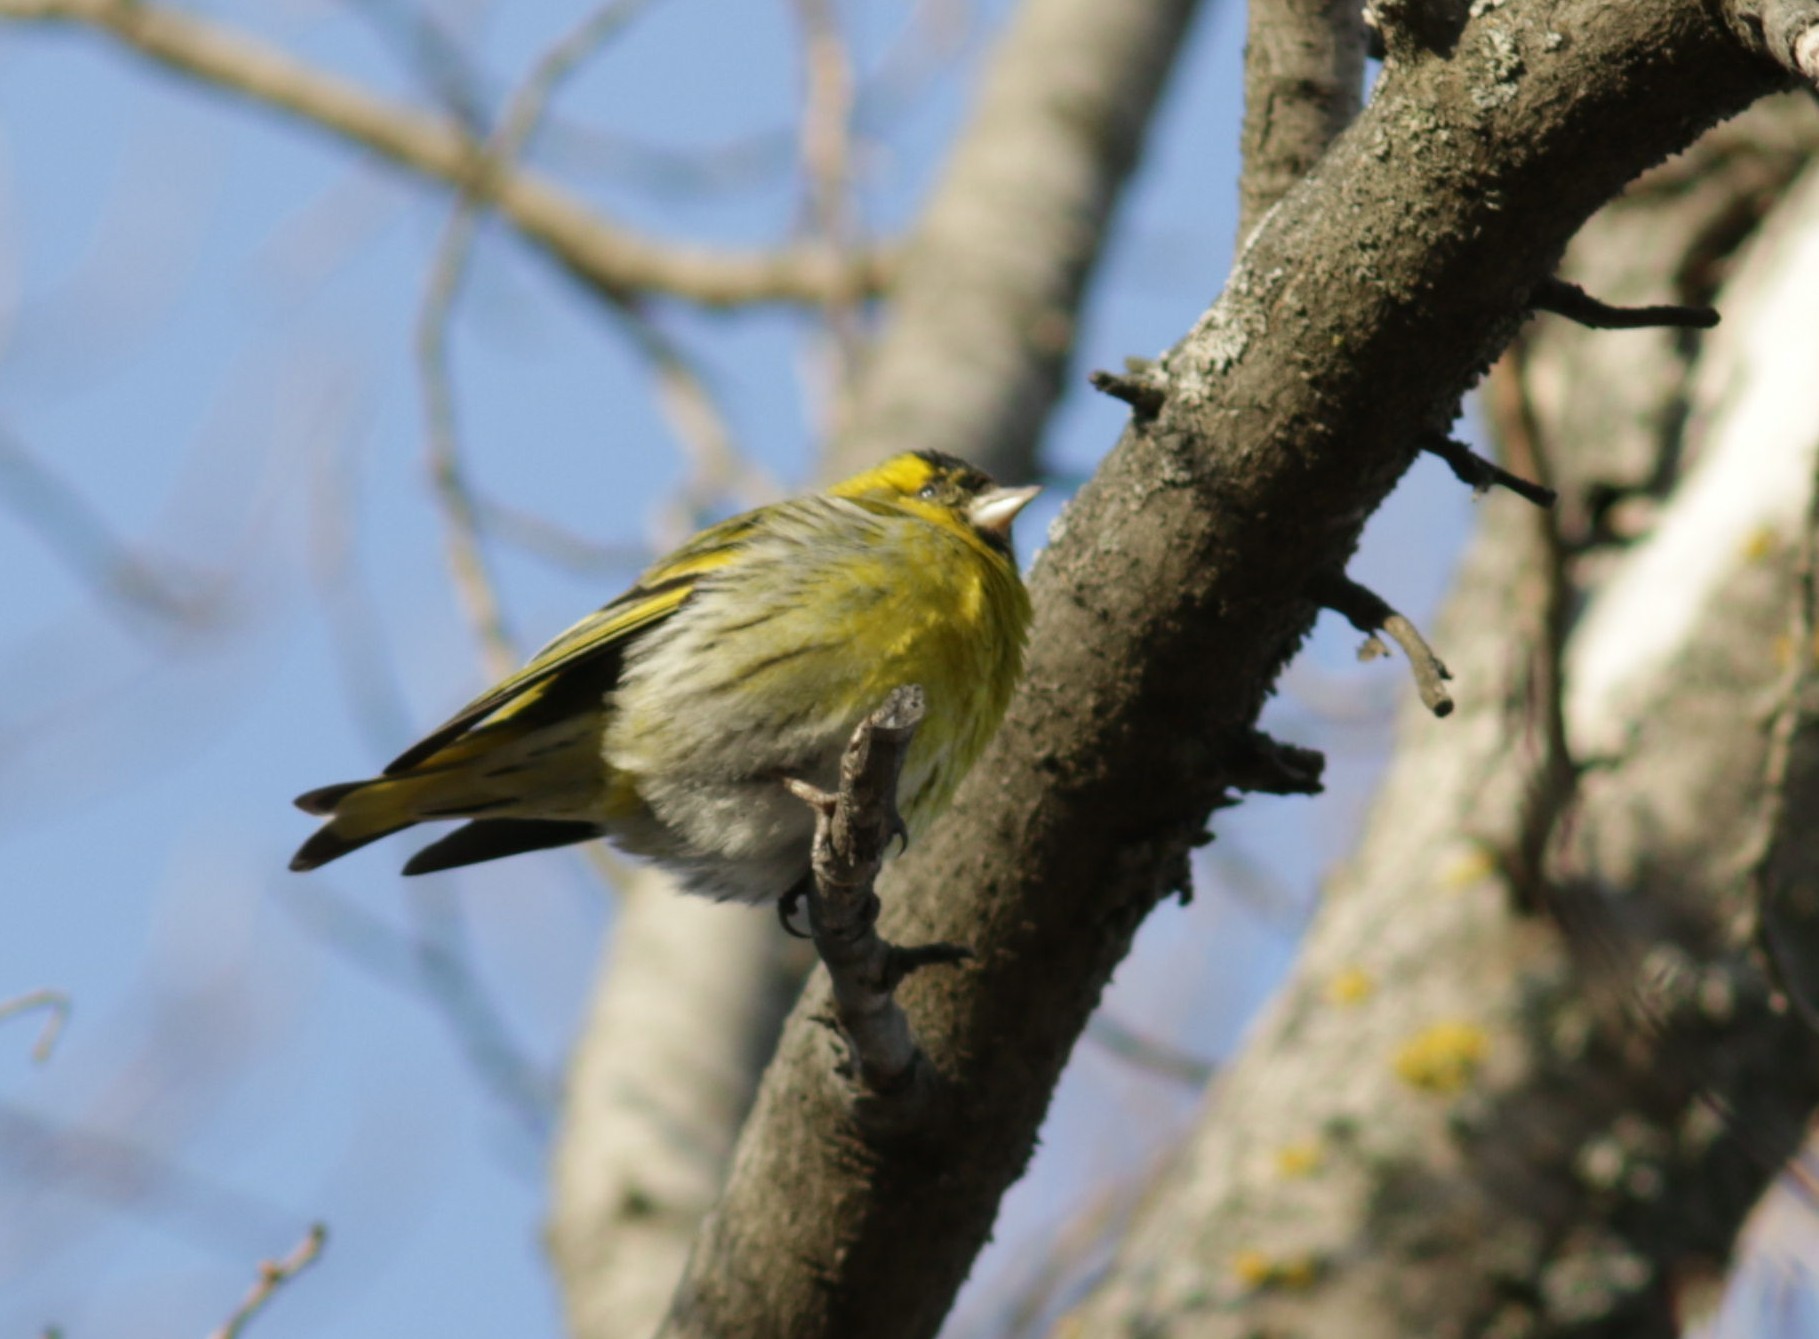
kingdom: Animalia
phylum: Chordata
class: Aves
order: Passeriformes
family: Fringillidae
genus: Spinus
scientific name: Spinus spinus
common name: Eurasian siskin
